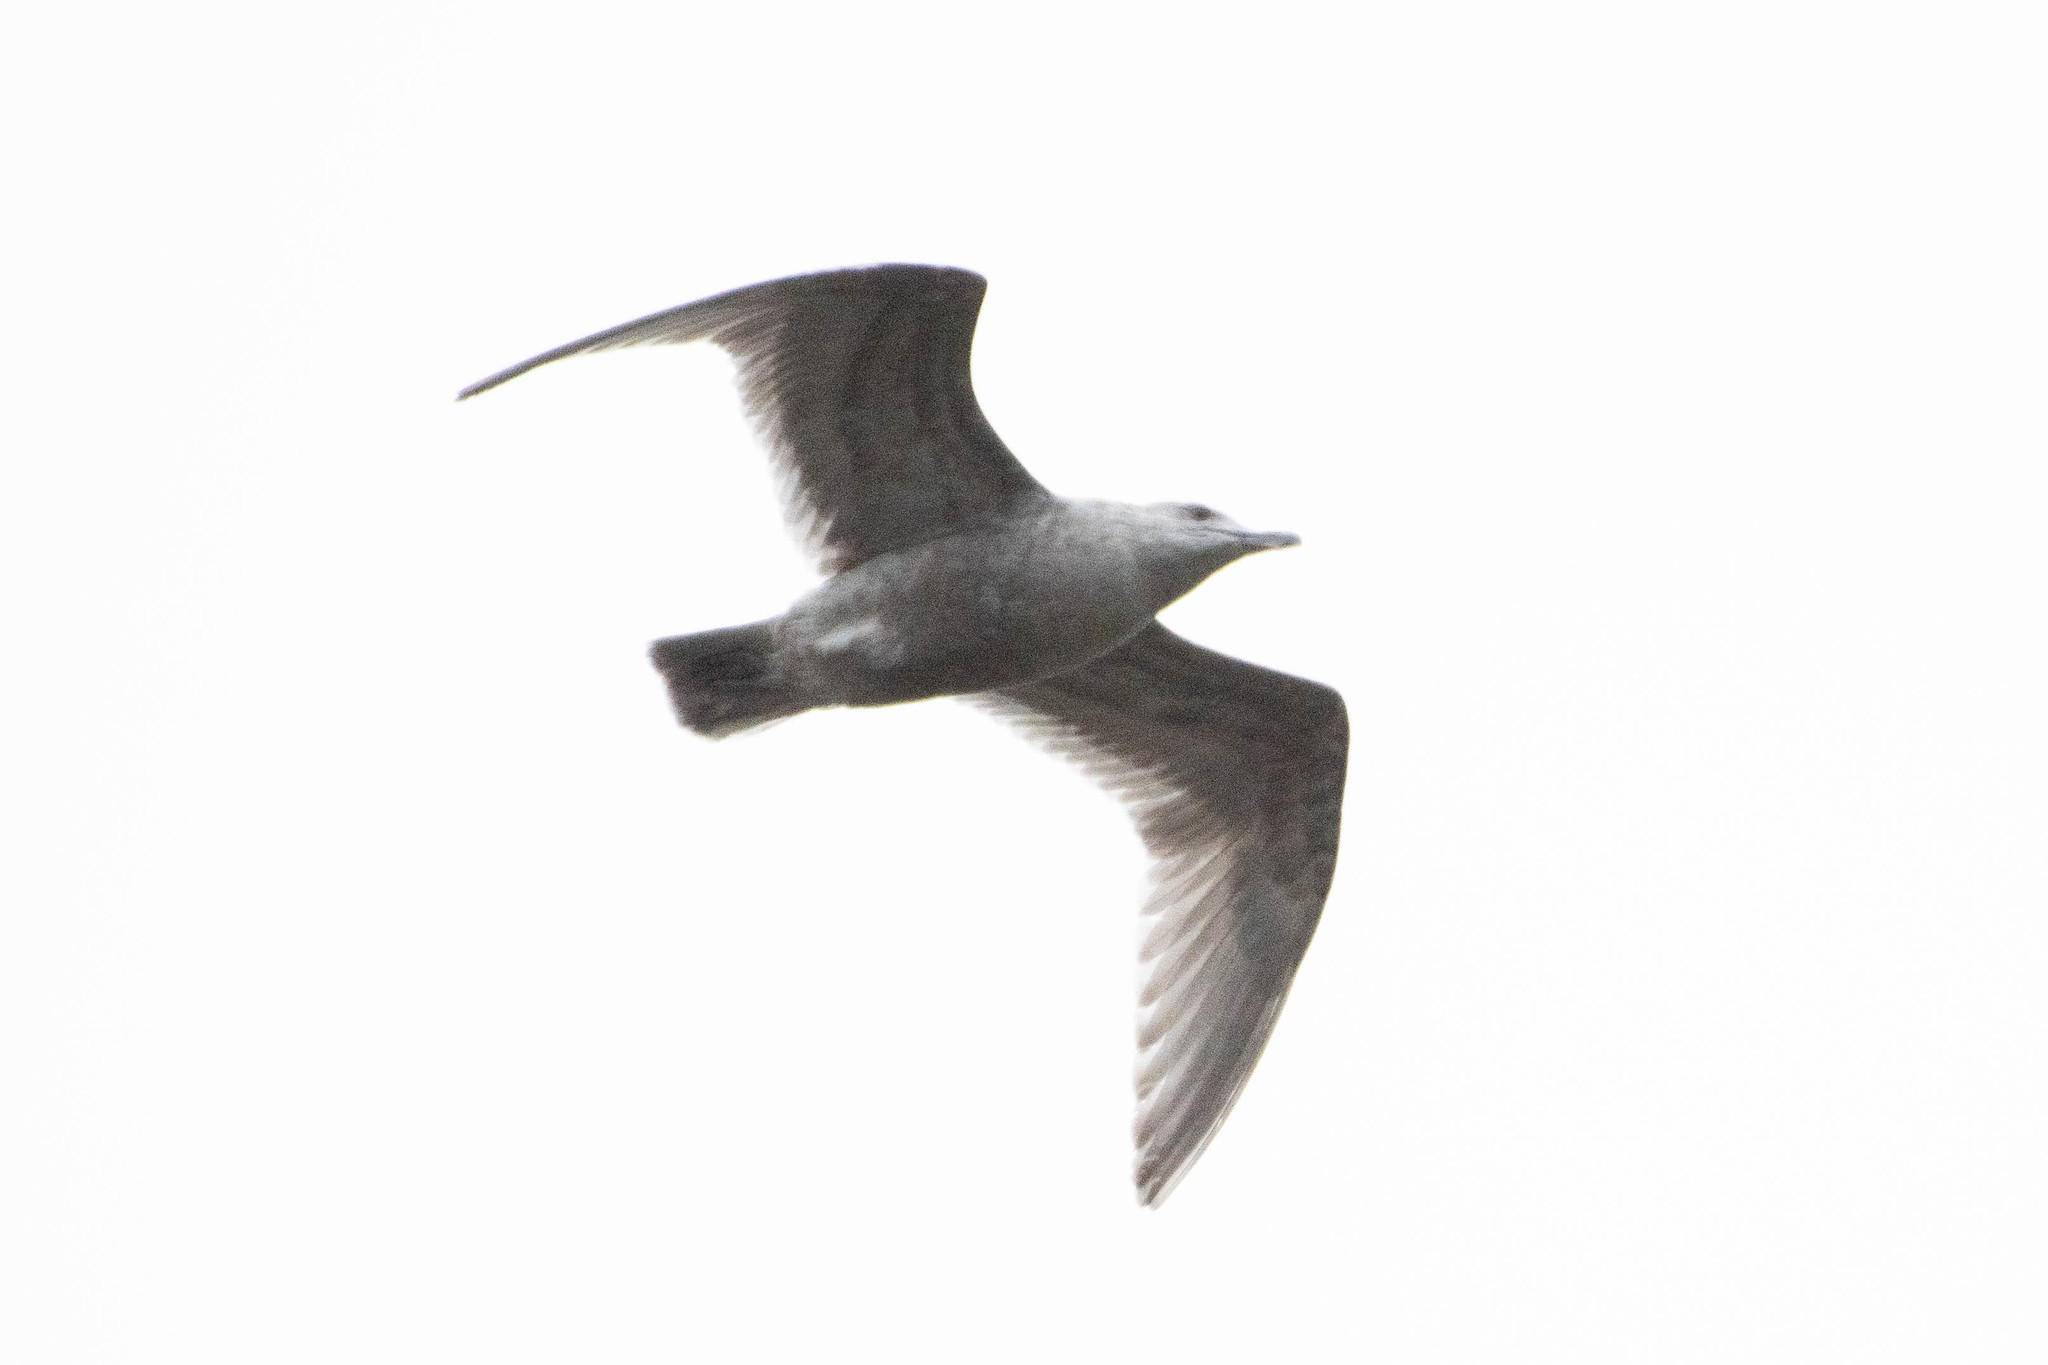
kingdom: Animalia
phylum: Chordata
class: Aves
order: Charadriiformes
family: Laridae
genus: Larus
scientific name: Larus
